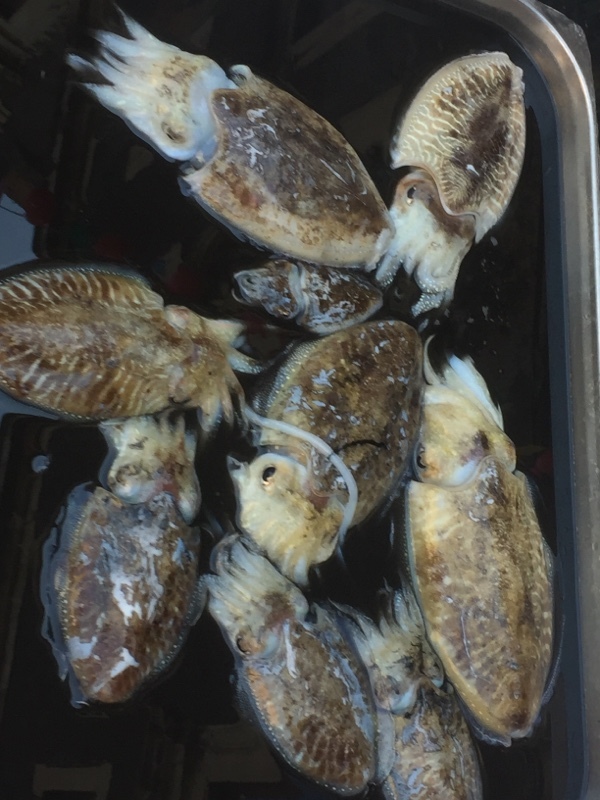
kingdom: Animalia
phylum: Mollusca
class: Cephalopoda
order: Sepiida
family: Sepiidae
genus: Sepia
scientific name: Sepia officinalis
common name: Common cuttlefish
